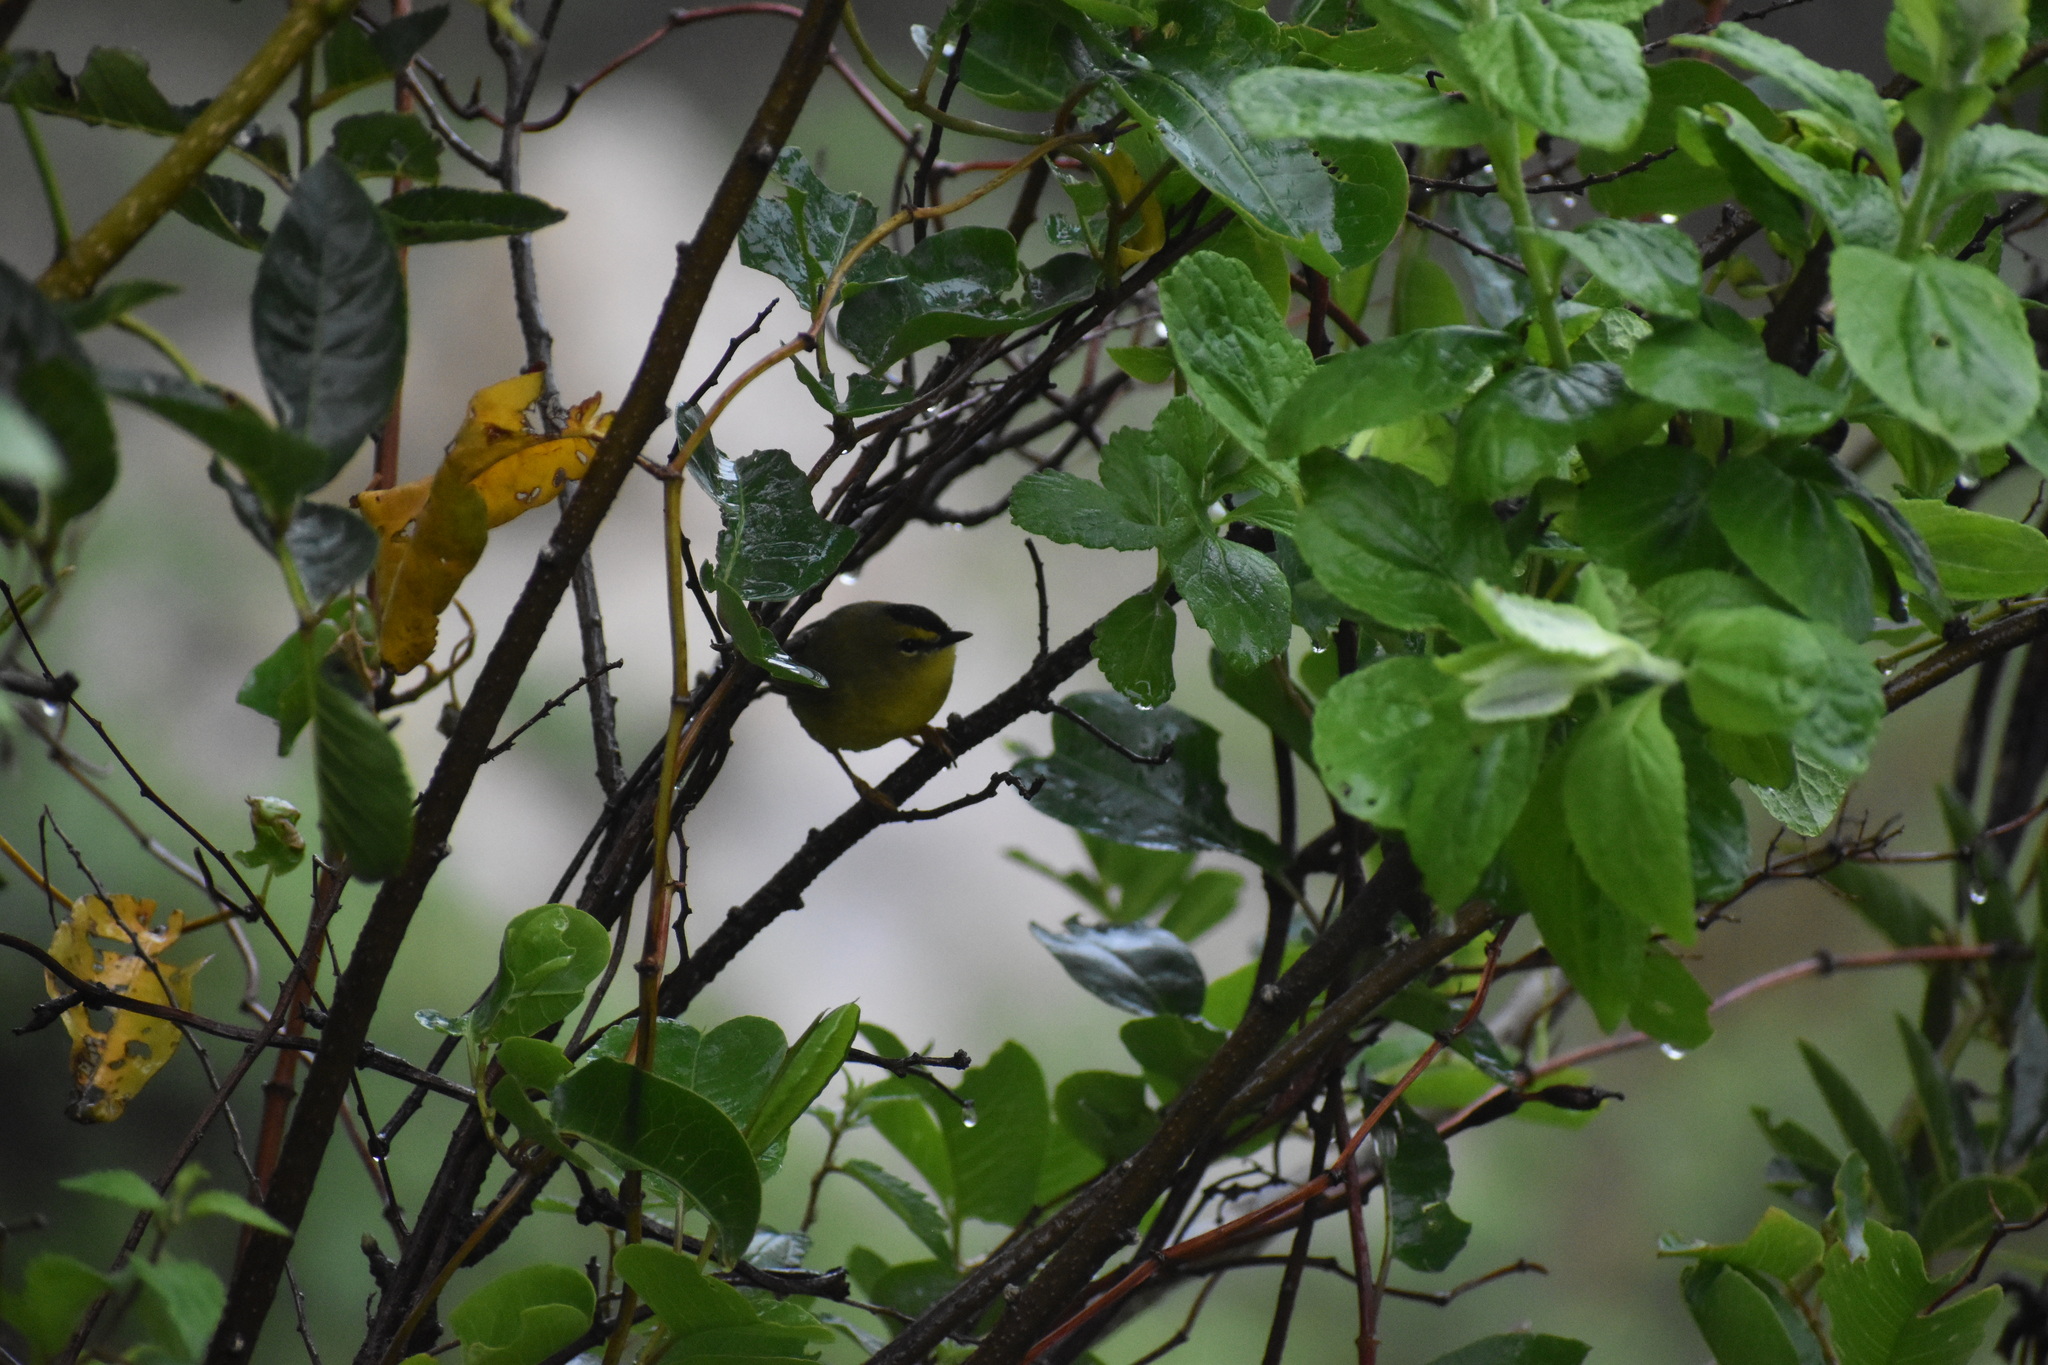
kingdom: Animalia
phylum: Chordata
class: Aves
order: Passeriformes
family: Parulidae
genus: Myiothlypis
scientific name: Myiothlypis nigrocristata
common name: Black-crested warbler
